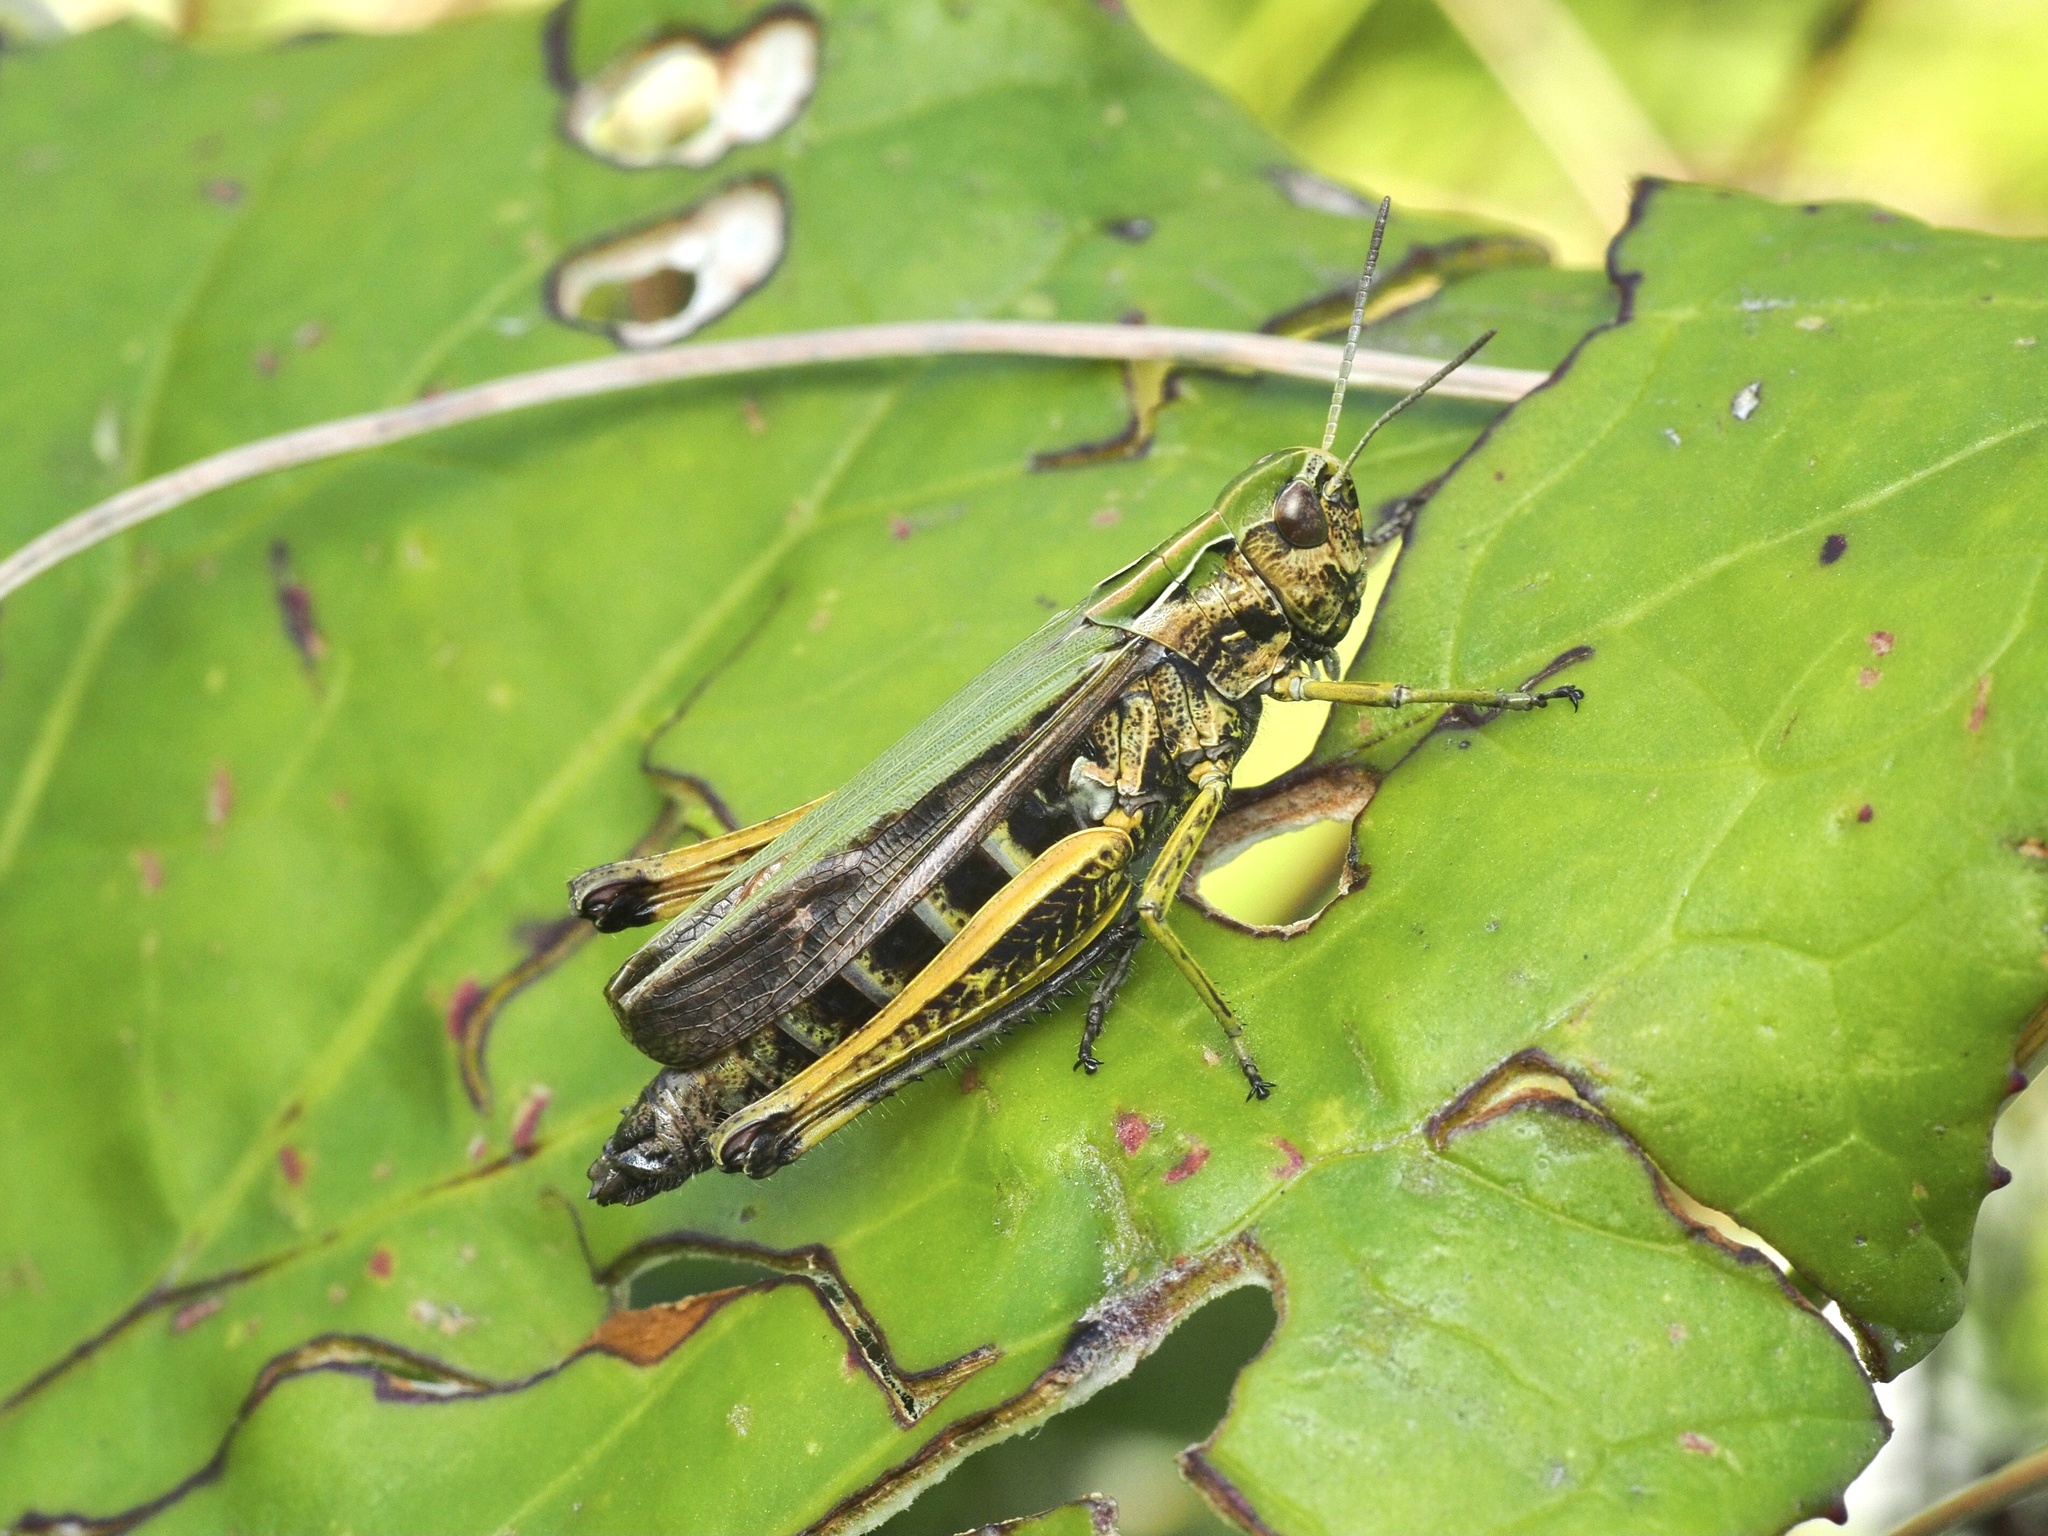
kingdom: Animalia
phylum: Arthropoda
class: Insecta
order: Orthoptera
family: Acrididae
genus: Omocestus
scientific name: Omocestus viridulus
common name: Common green grasshopper
